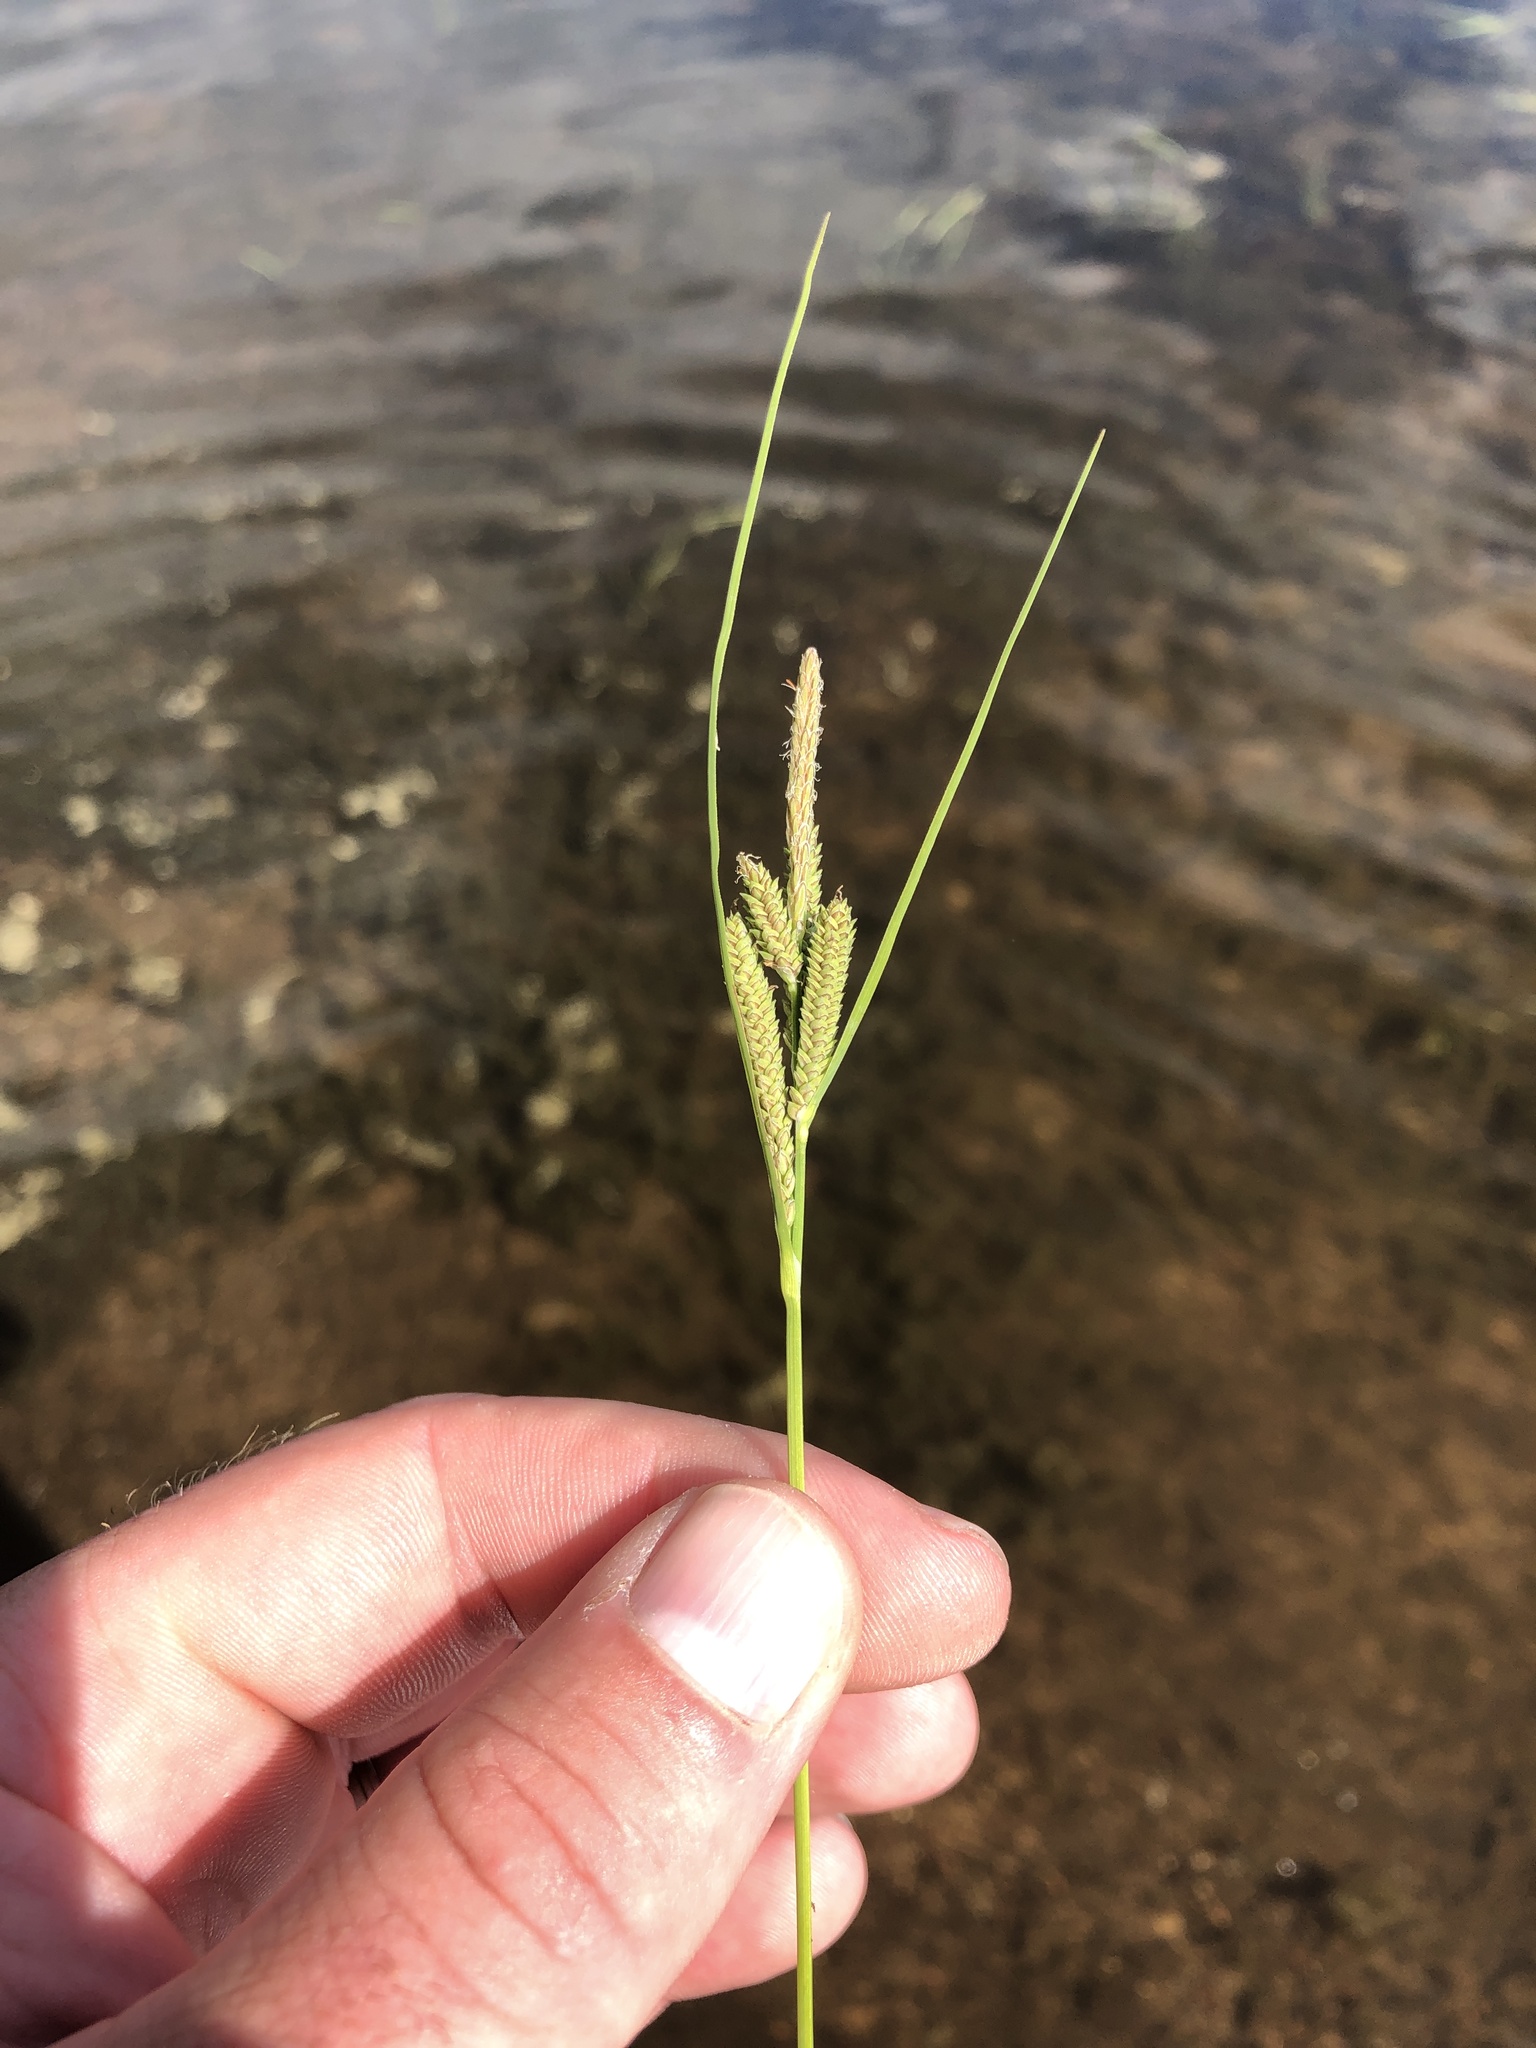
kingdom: Plantae
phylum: Tracheophyta
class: Liliopsida
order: Poales
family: Cyperaceae
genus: Carex
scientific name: Carex lenticularis
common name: Lakeshore sedge
